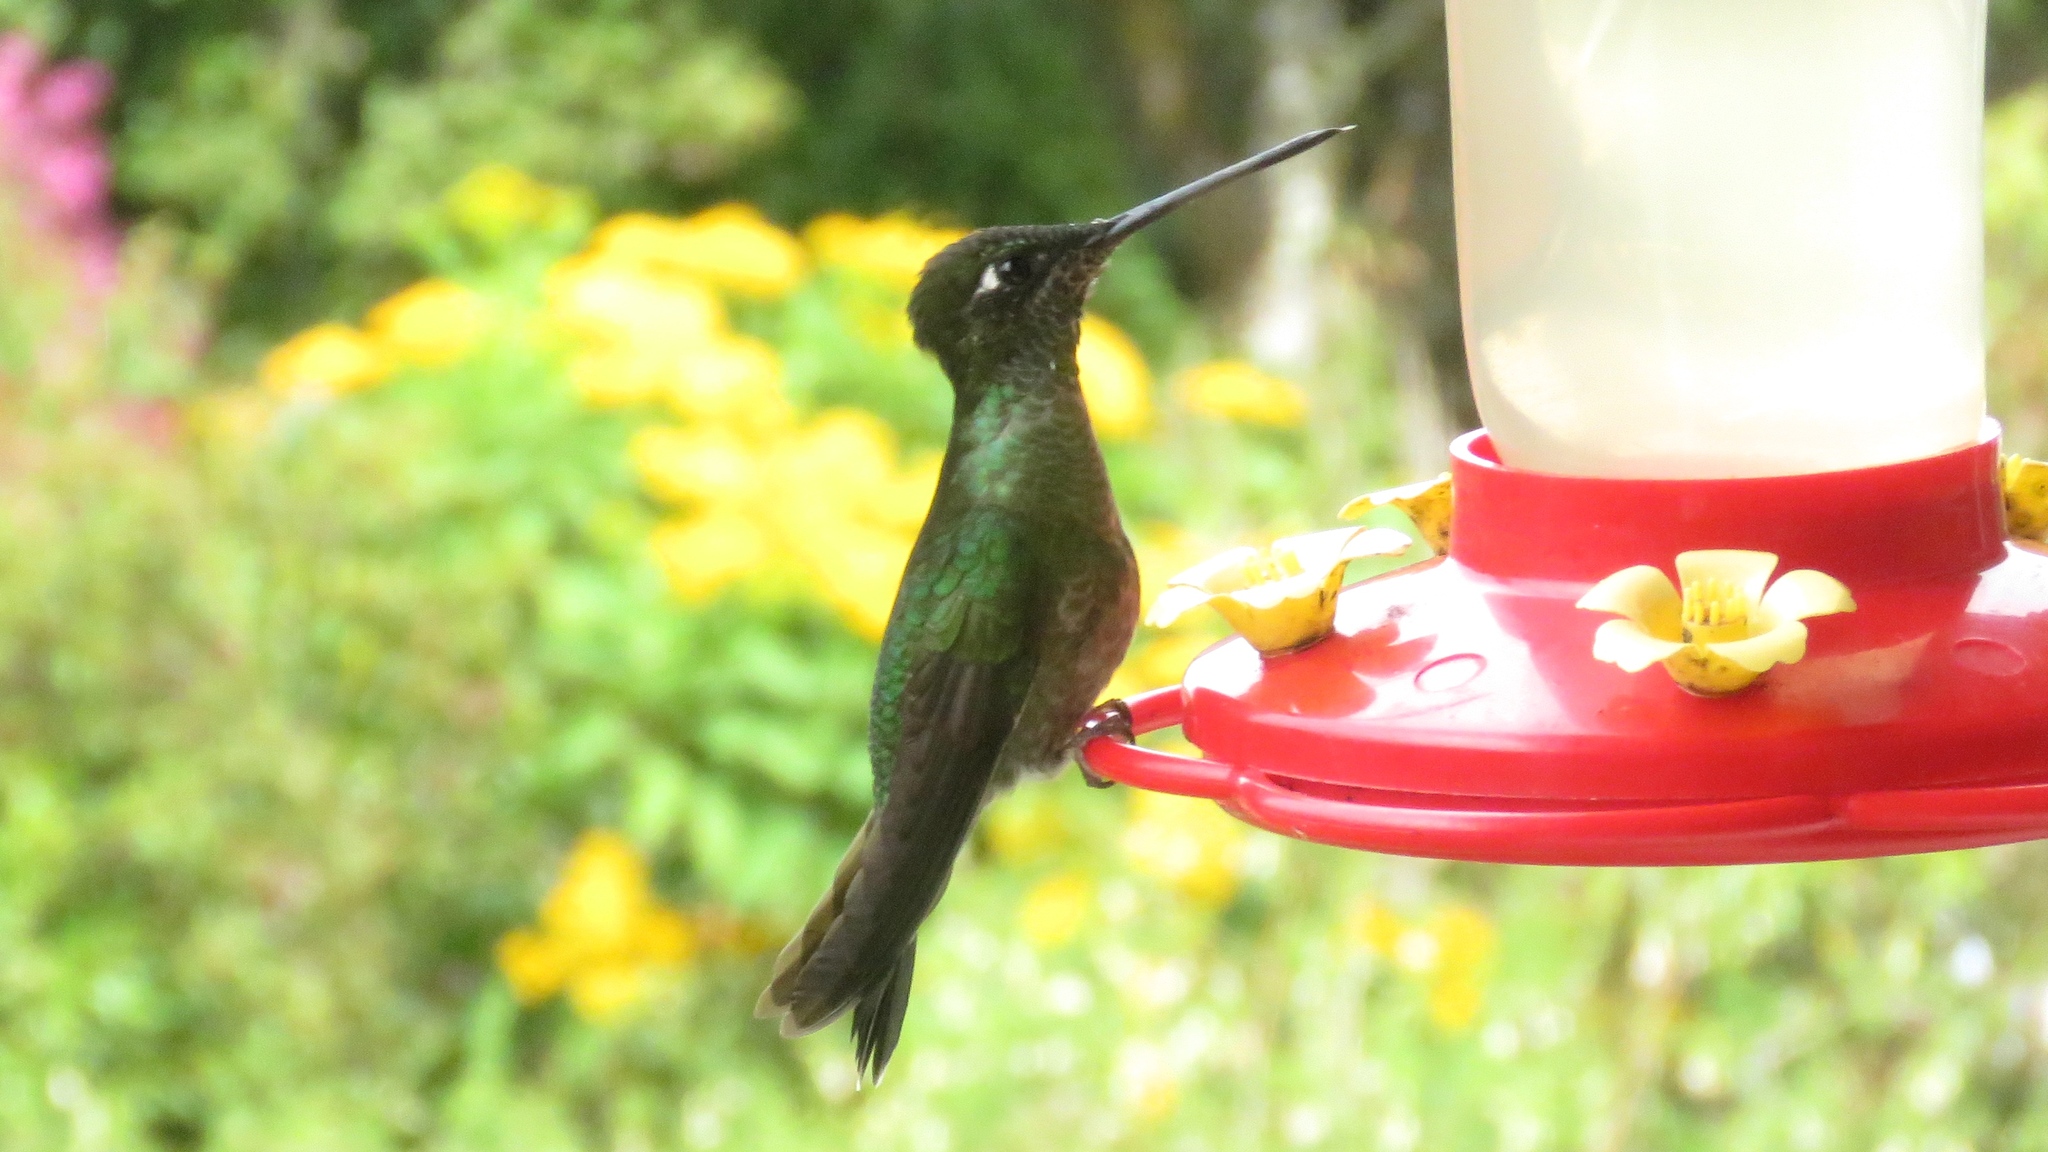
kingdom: Animalia
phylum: Chordata
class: Aves
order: Apodiformes
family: Trochilidae
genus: Eugenes
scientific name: Eugenes spectabilis
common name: Talamanca hummingbird
